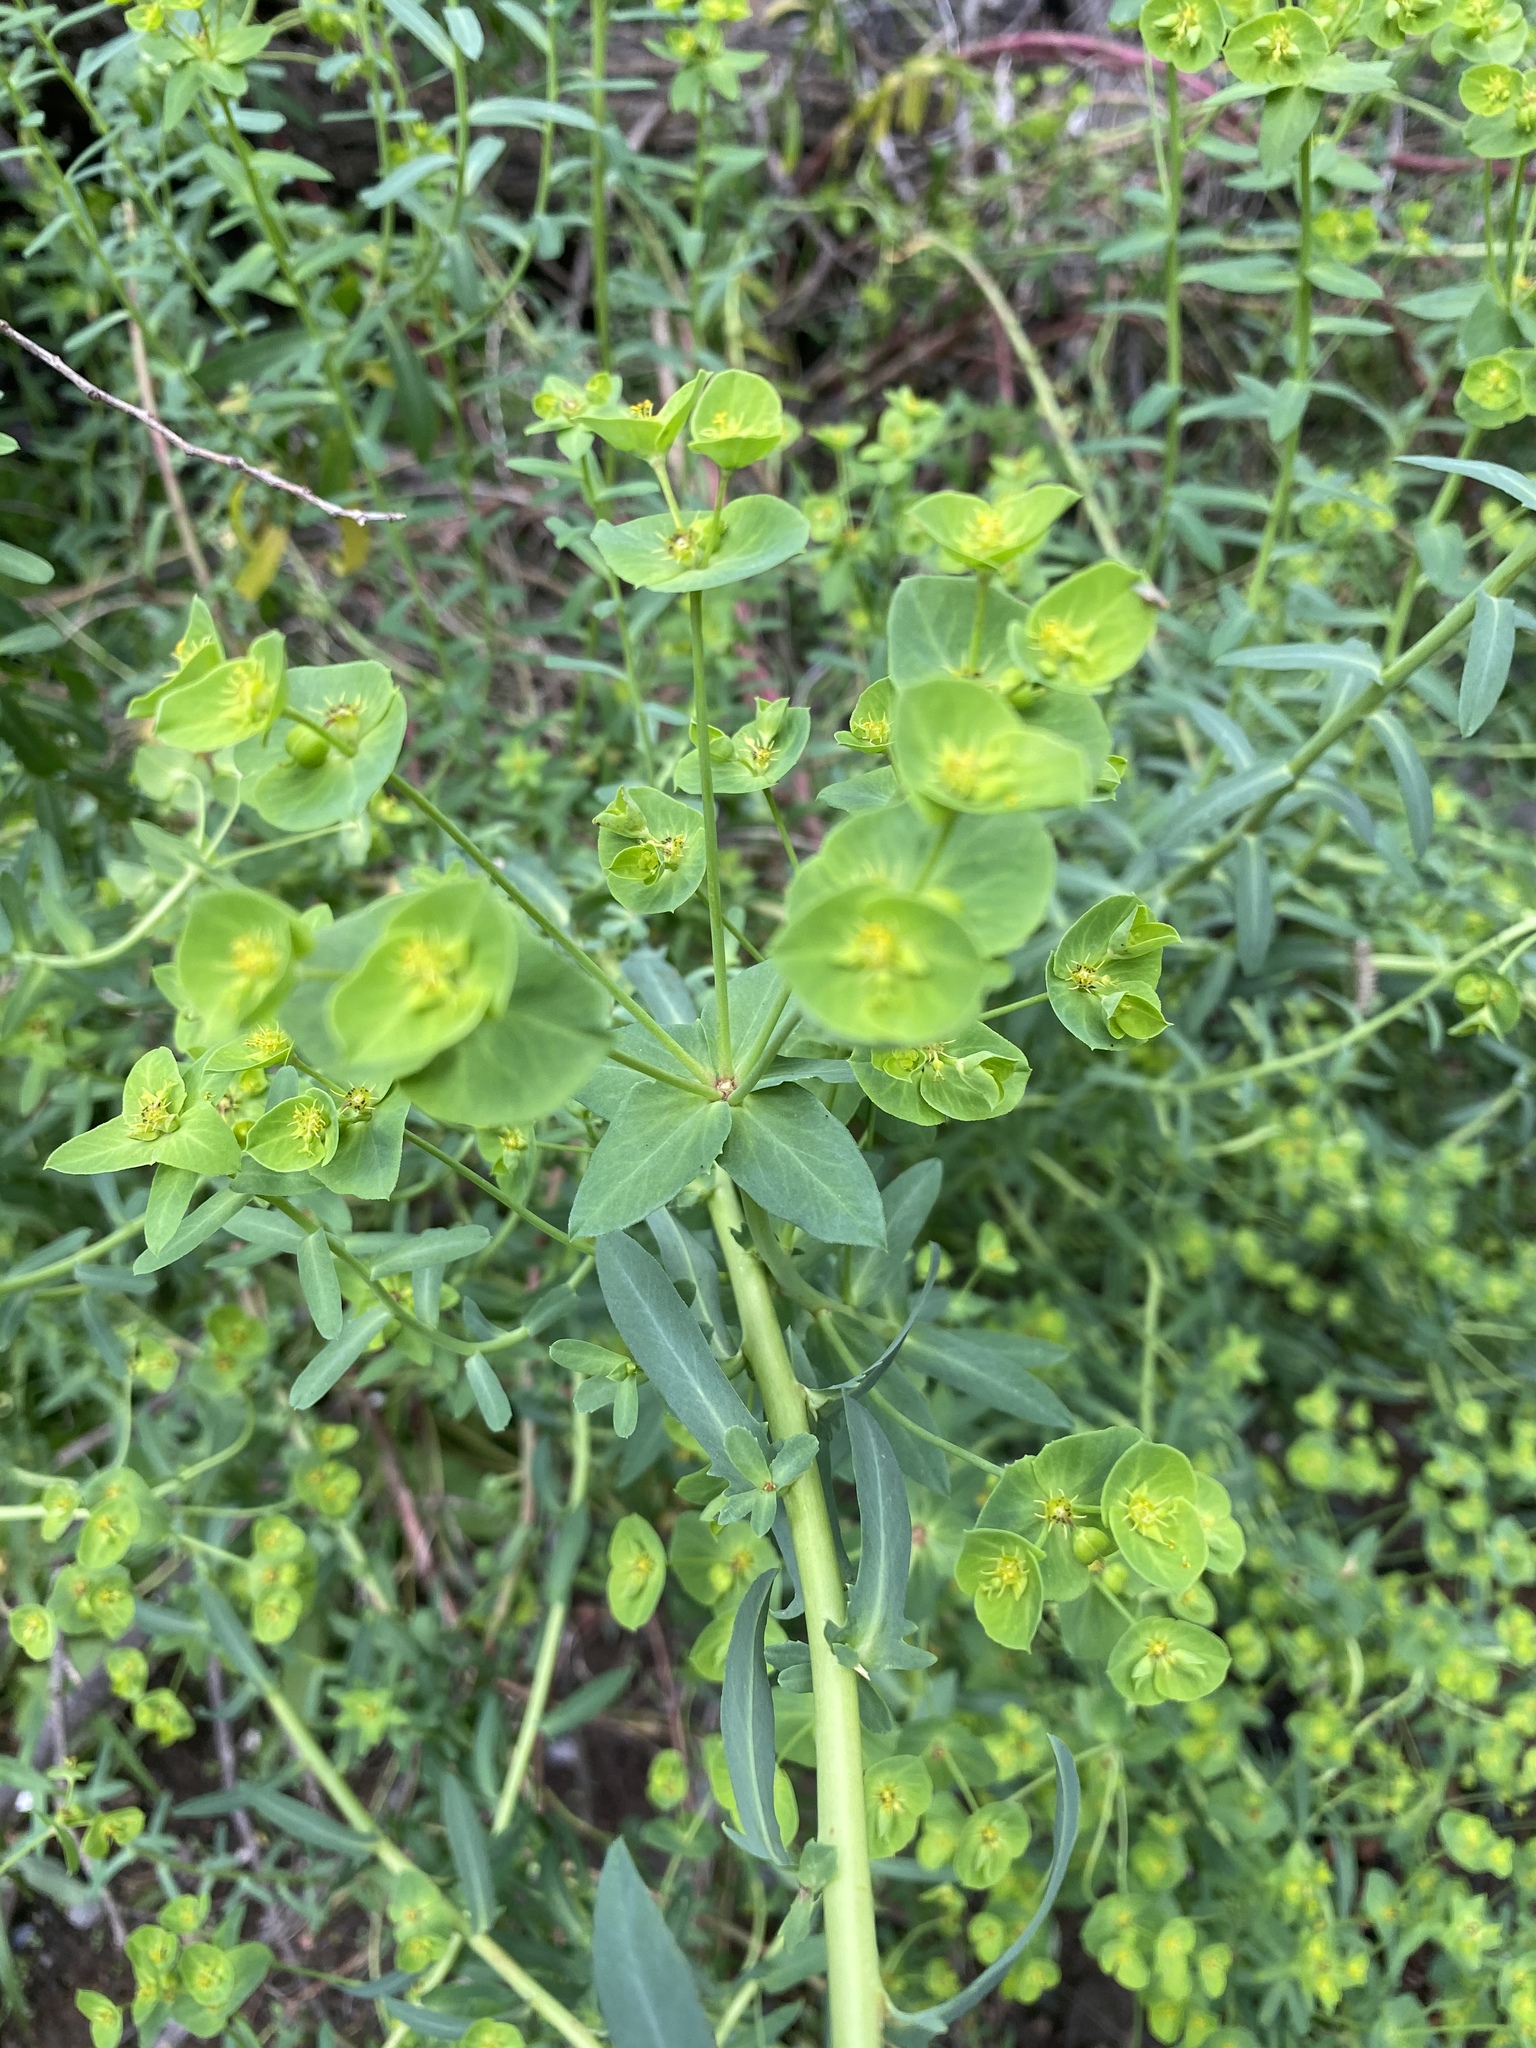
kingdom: Plantae
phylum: Tracheophyta
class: Magnoliopsida
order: Malpighiales
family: Euphorbiaceae
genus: Euphorbia
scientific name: Euphorbia terracina
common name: Geraldton carnation weed
